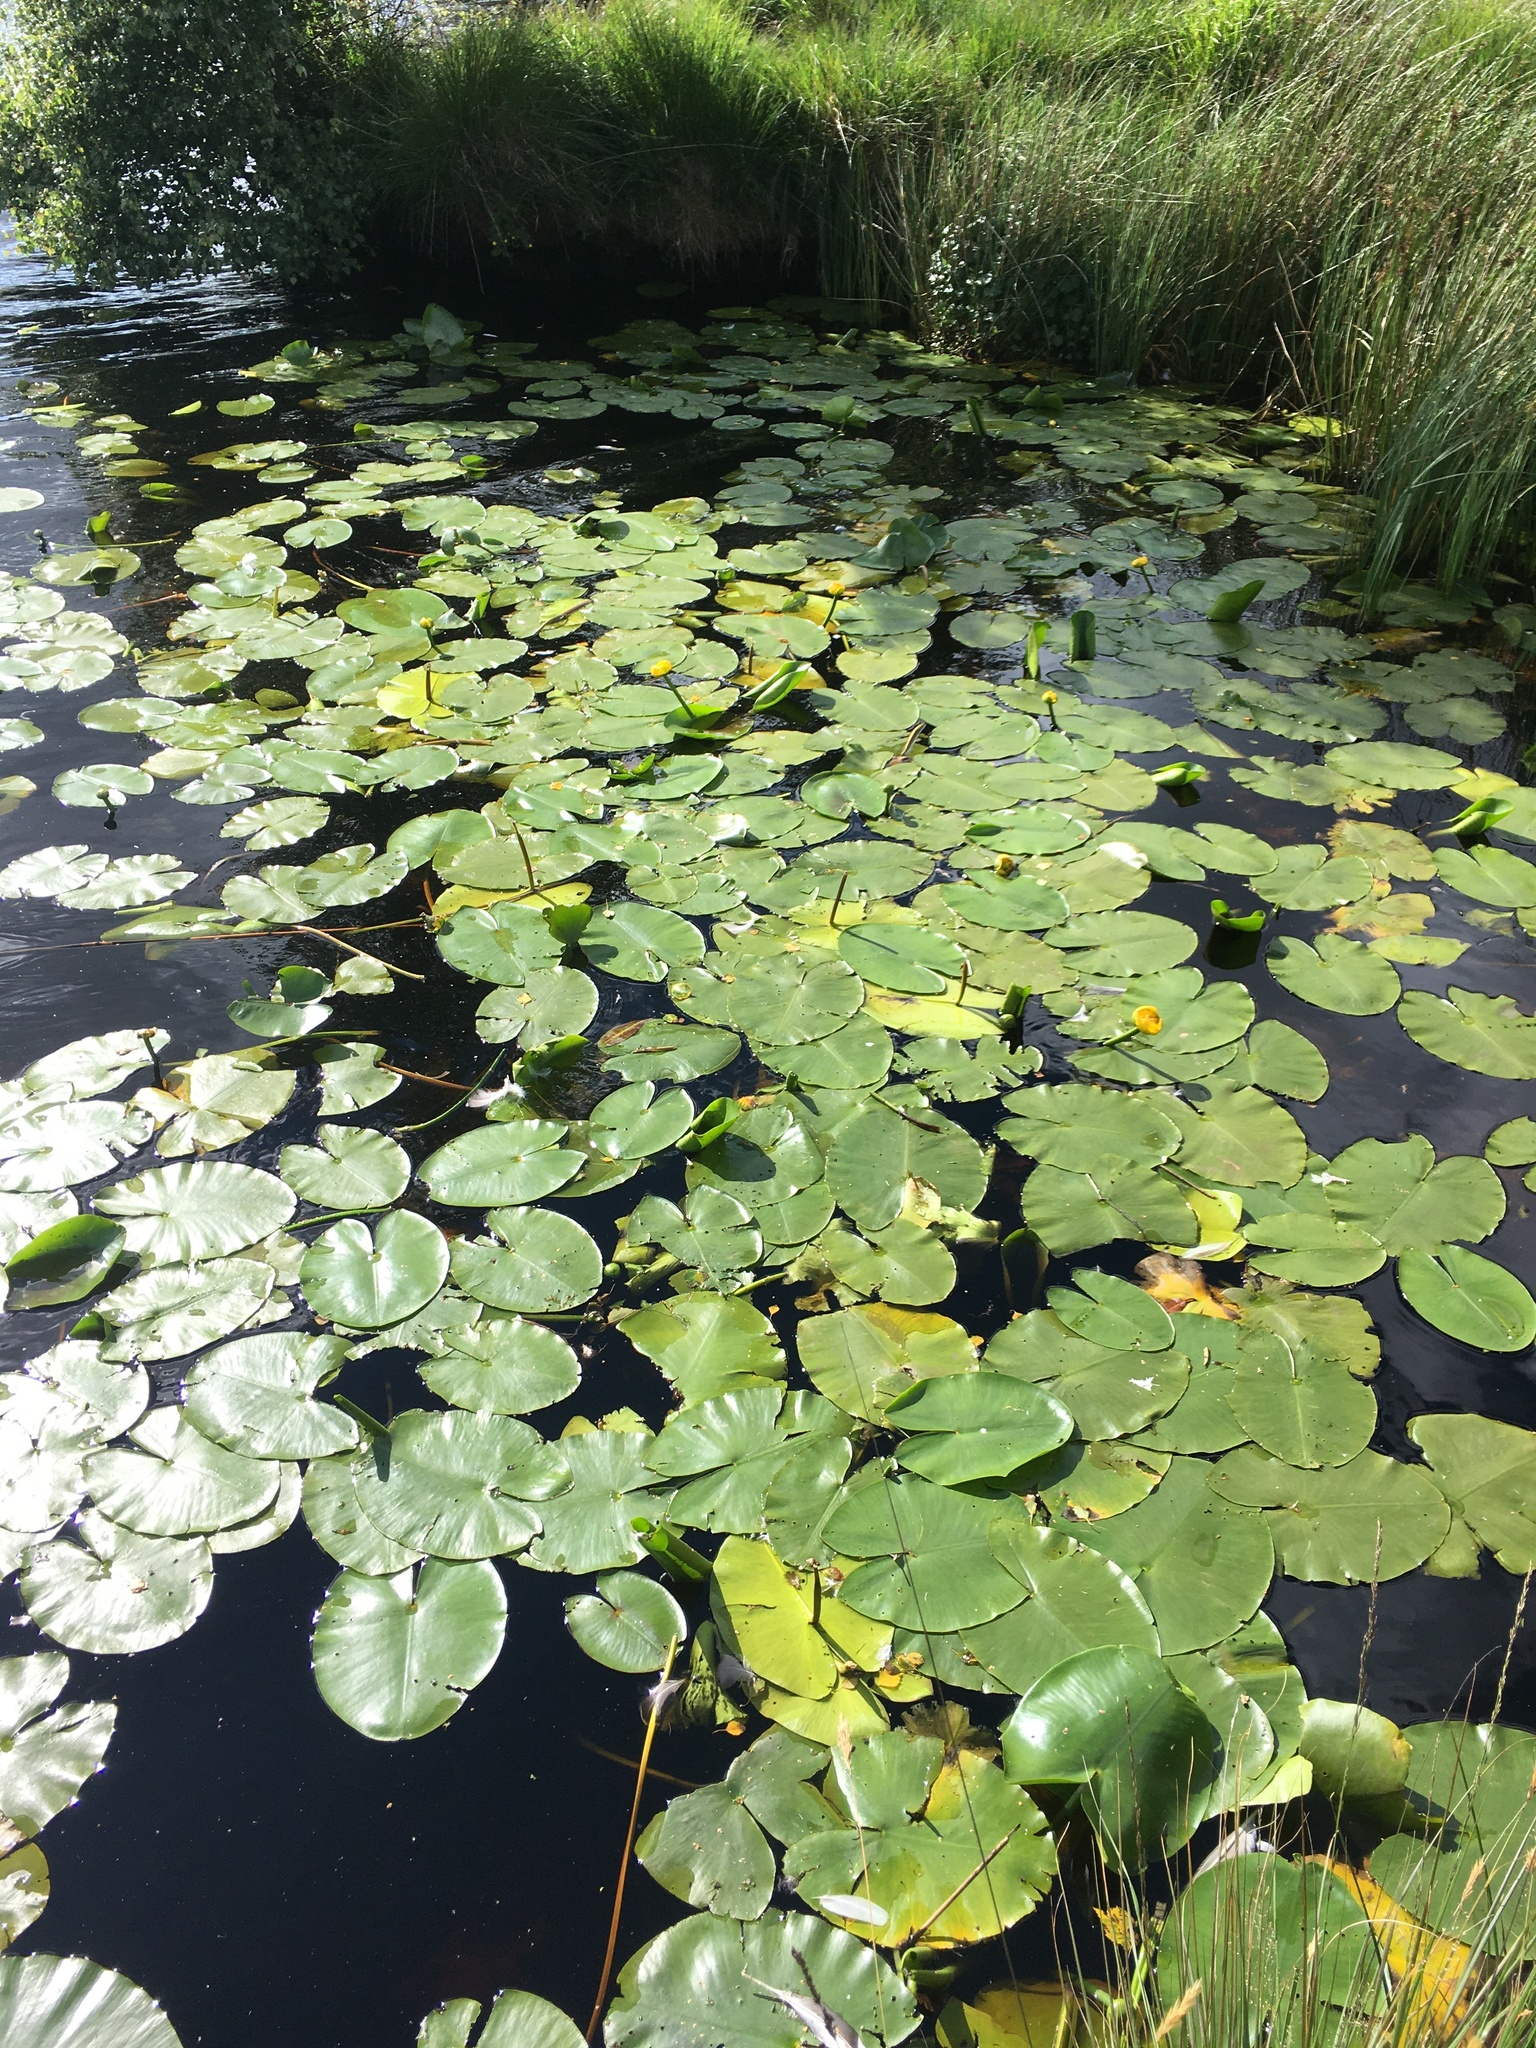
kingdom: Plantae
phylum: Tracheophyta
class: Magnoliopsida
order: Nymphaeales
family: Nymphaeaceae
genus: Nuphar
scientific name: Nuphar lutea
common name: Yellow water-lily
